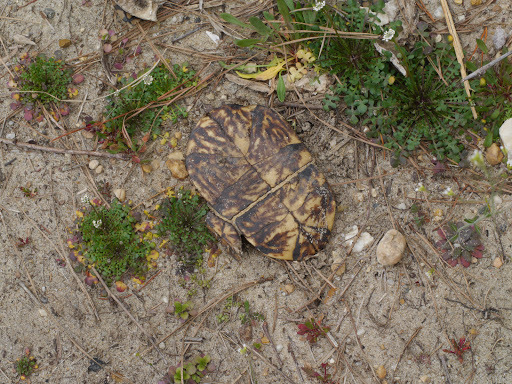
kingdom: Animalia
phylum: Chordata
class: Testudines
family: Emydidae
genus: Terrapene
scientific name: Terrapene carolina
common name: Common box turtle
